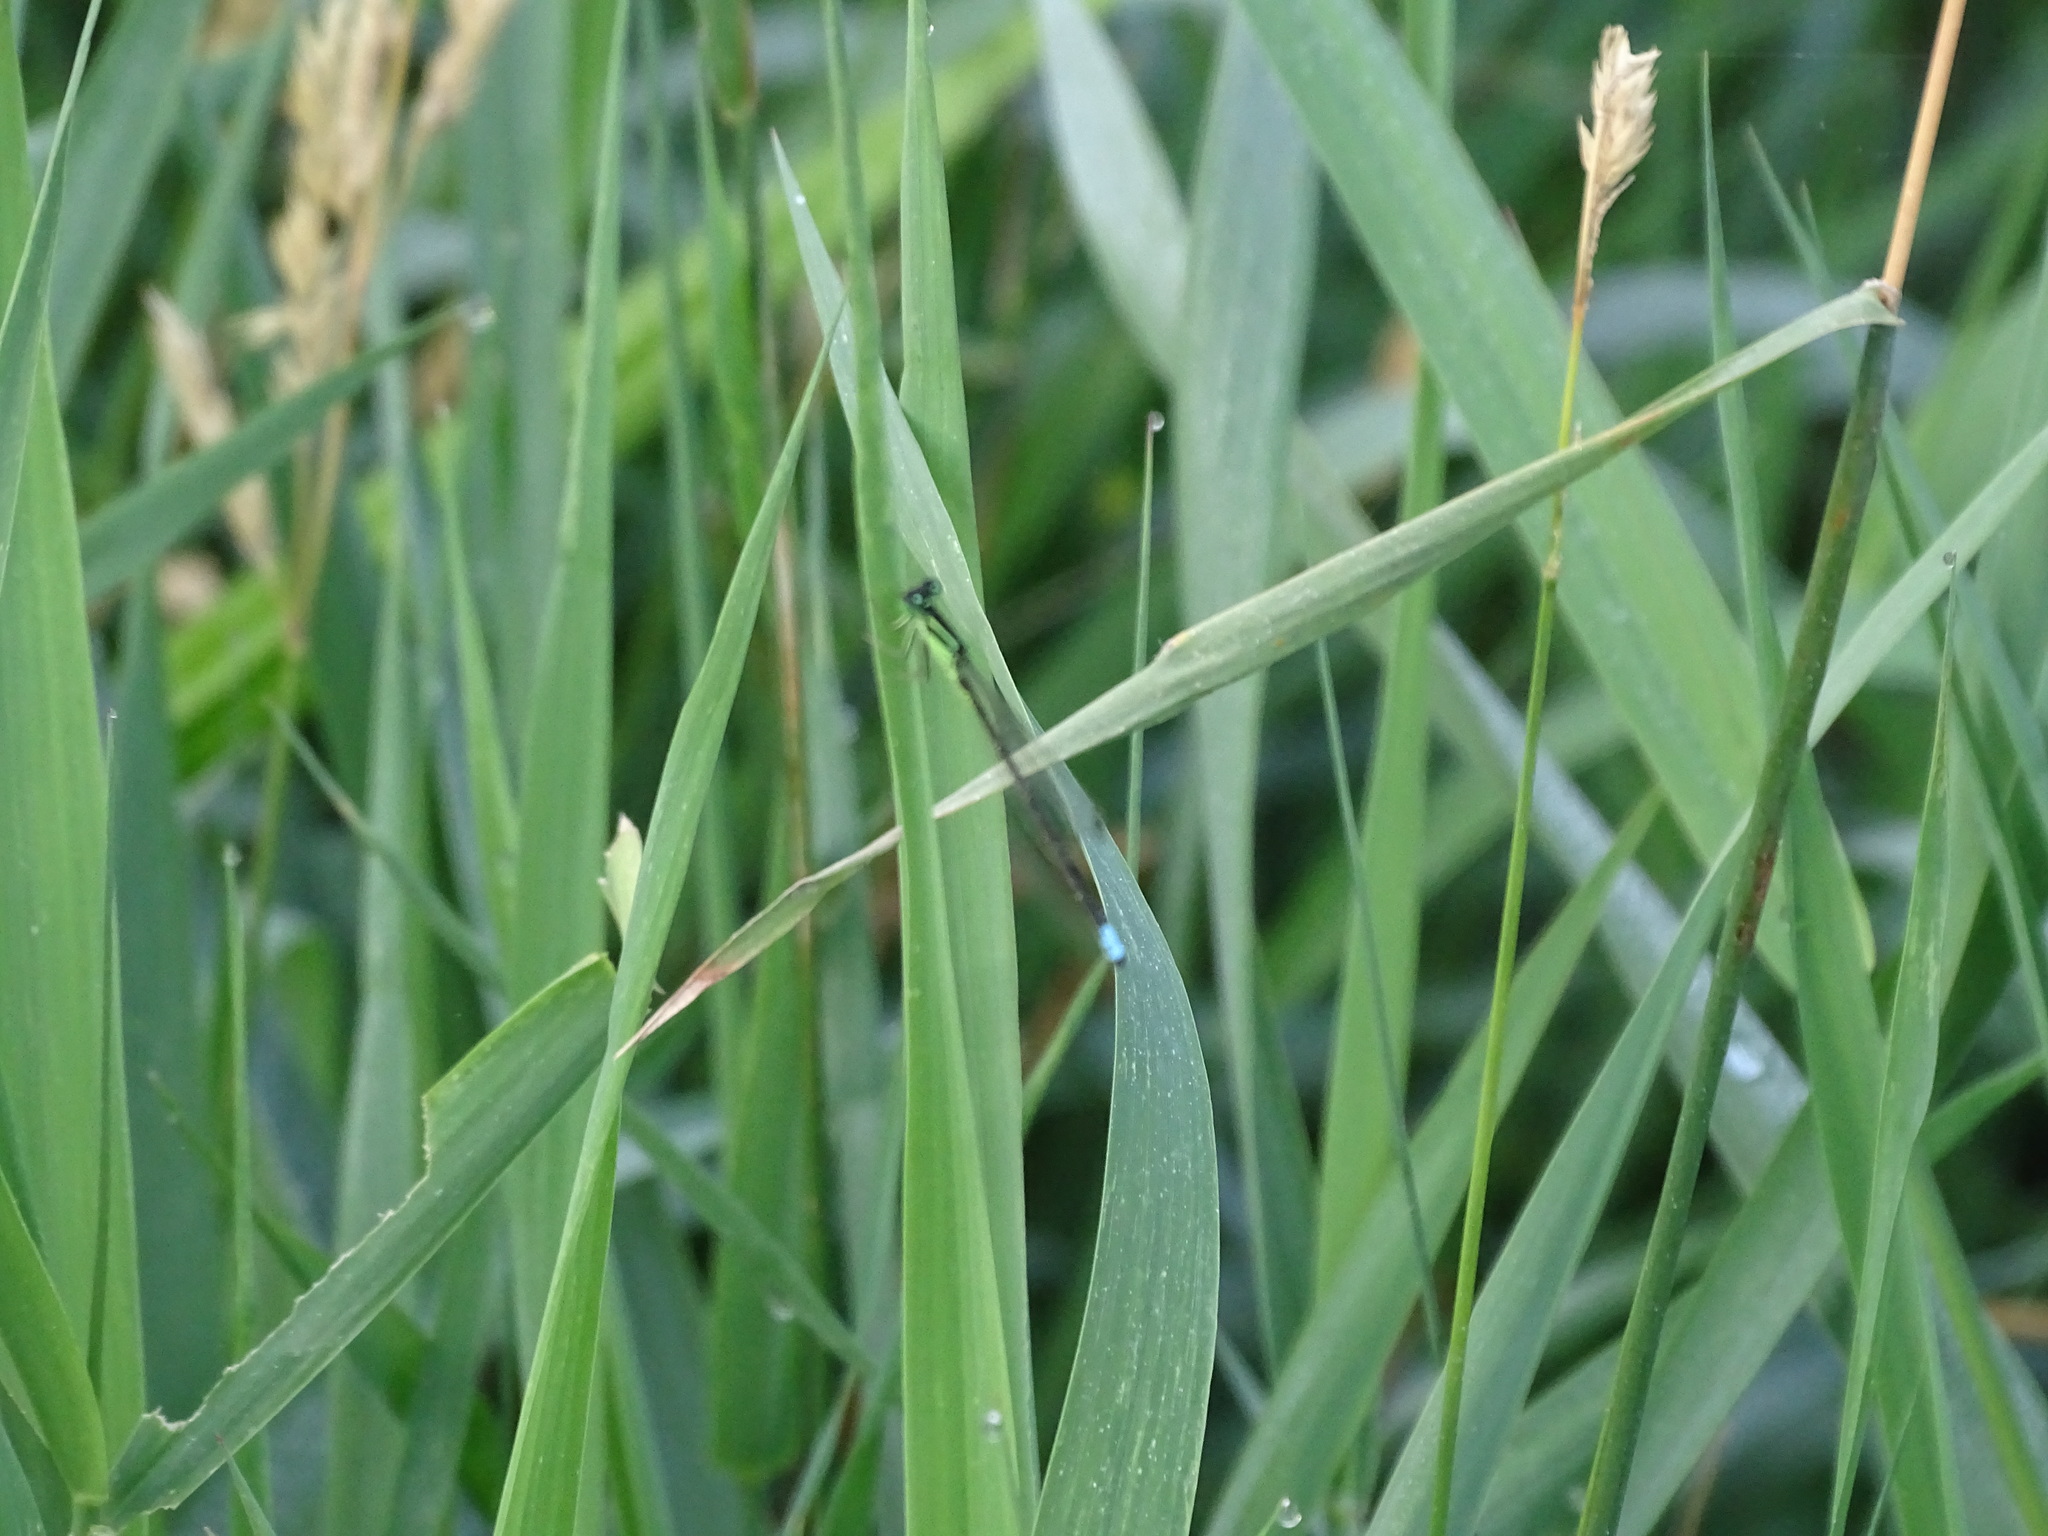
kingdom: Animalia
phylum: Arthropoda
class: Insecta
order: Odonata
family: Coenagrionidae
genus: Ischnura
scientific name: Ischnura verticalis
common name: Eastern forktail
